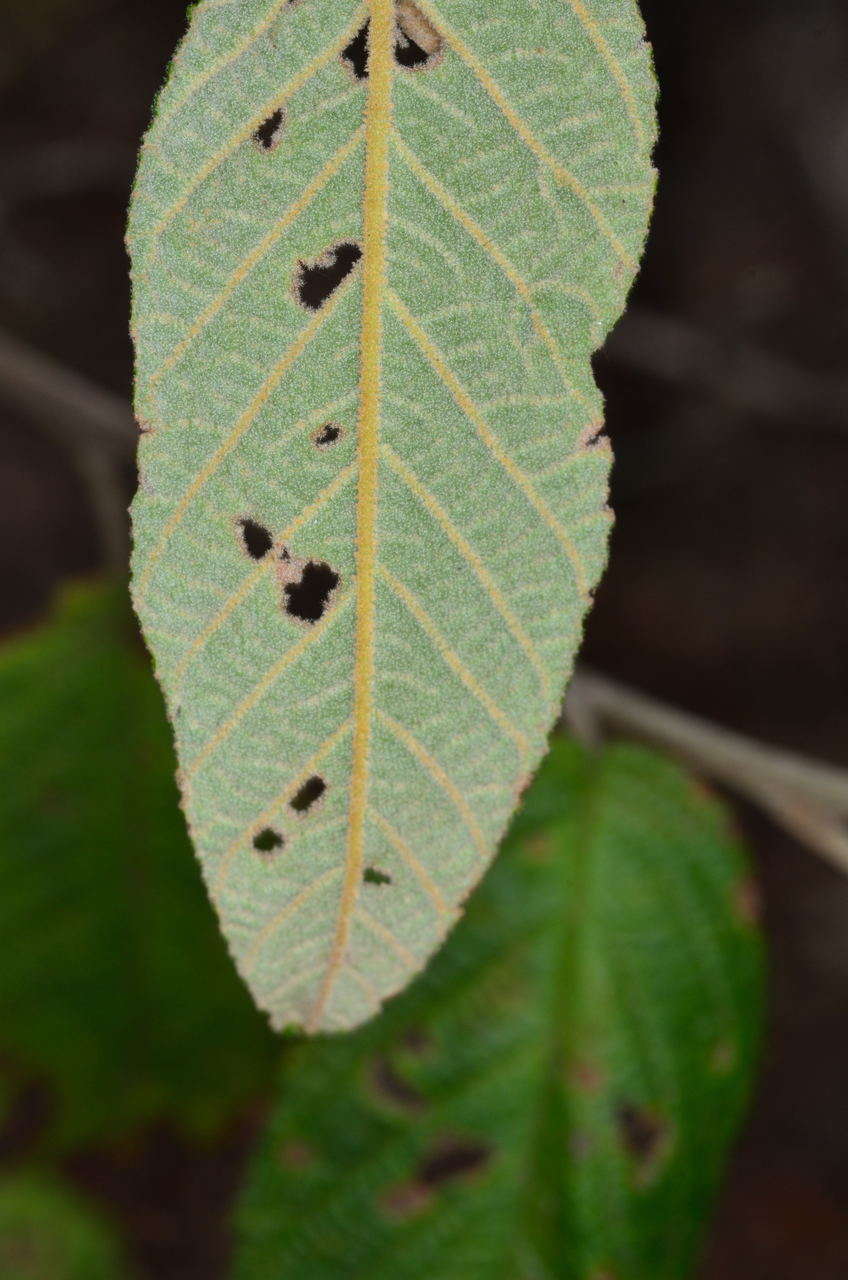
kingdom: Plantae
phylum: Tracheophyta
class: Magnoliopsida
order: Rosales
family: Rhamnaceae
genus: Pomaderris
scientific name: Pomaderris aspera
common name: Hazel pomaderris
